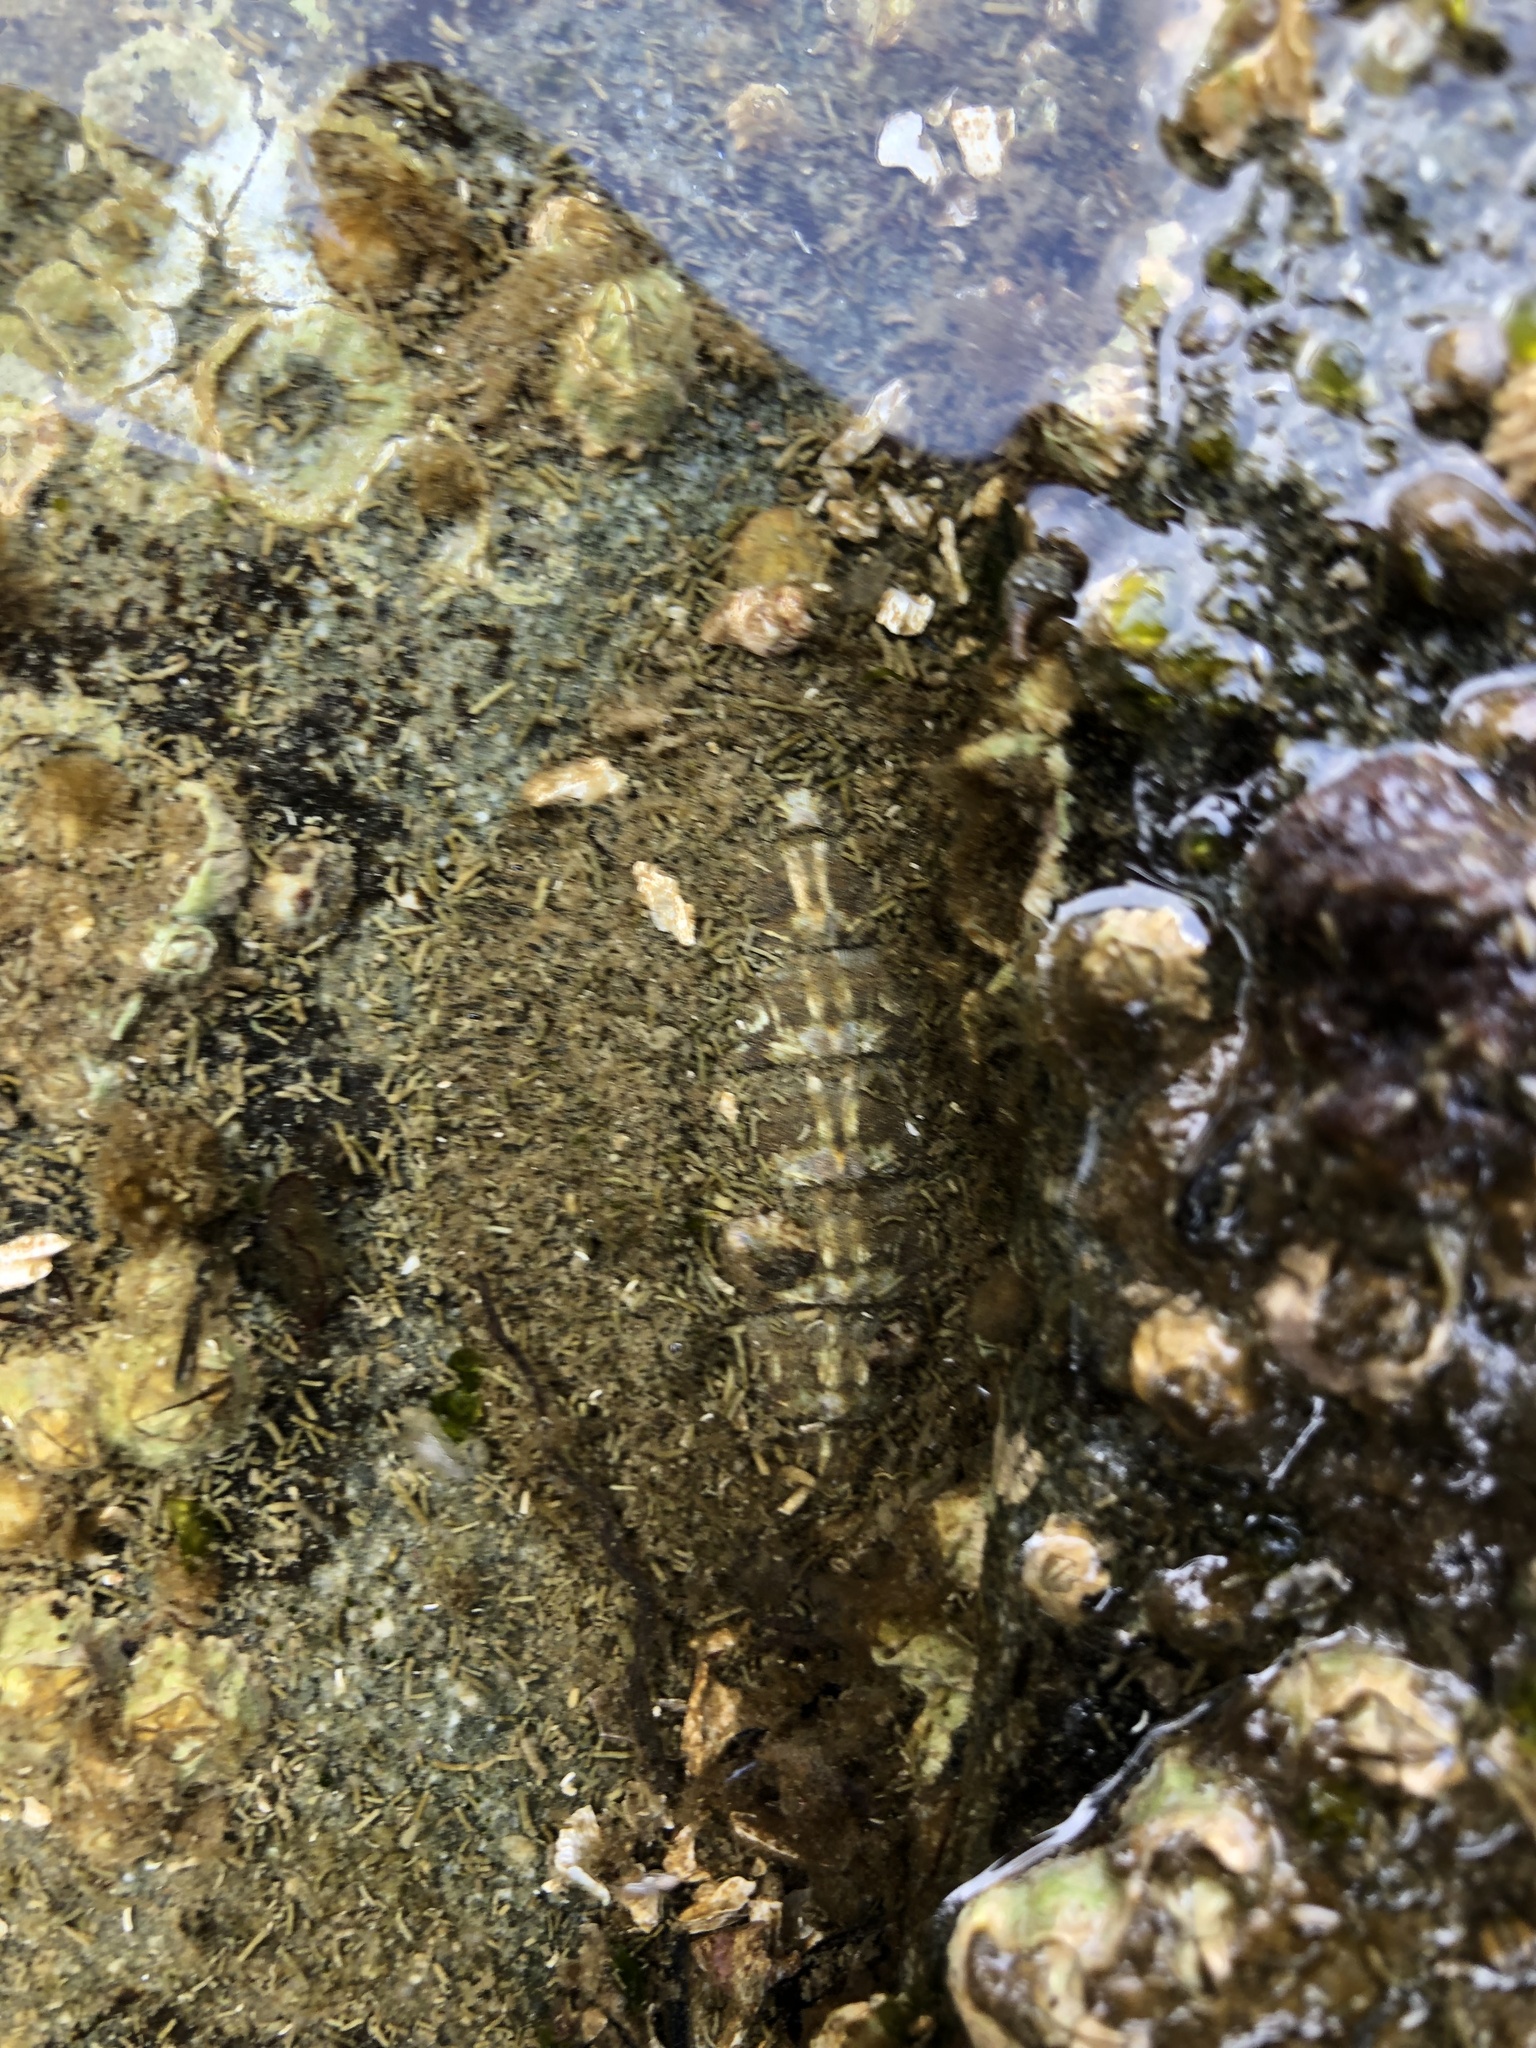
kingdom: Animalia
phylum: Mollusca
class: Polyplacophora
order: Chitonida
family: Mopaliidae
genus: Mopalia
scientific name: Mopalia muscosa
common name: Mossy chiton
